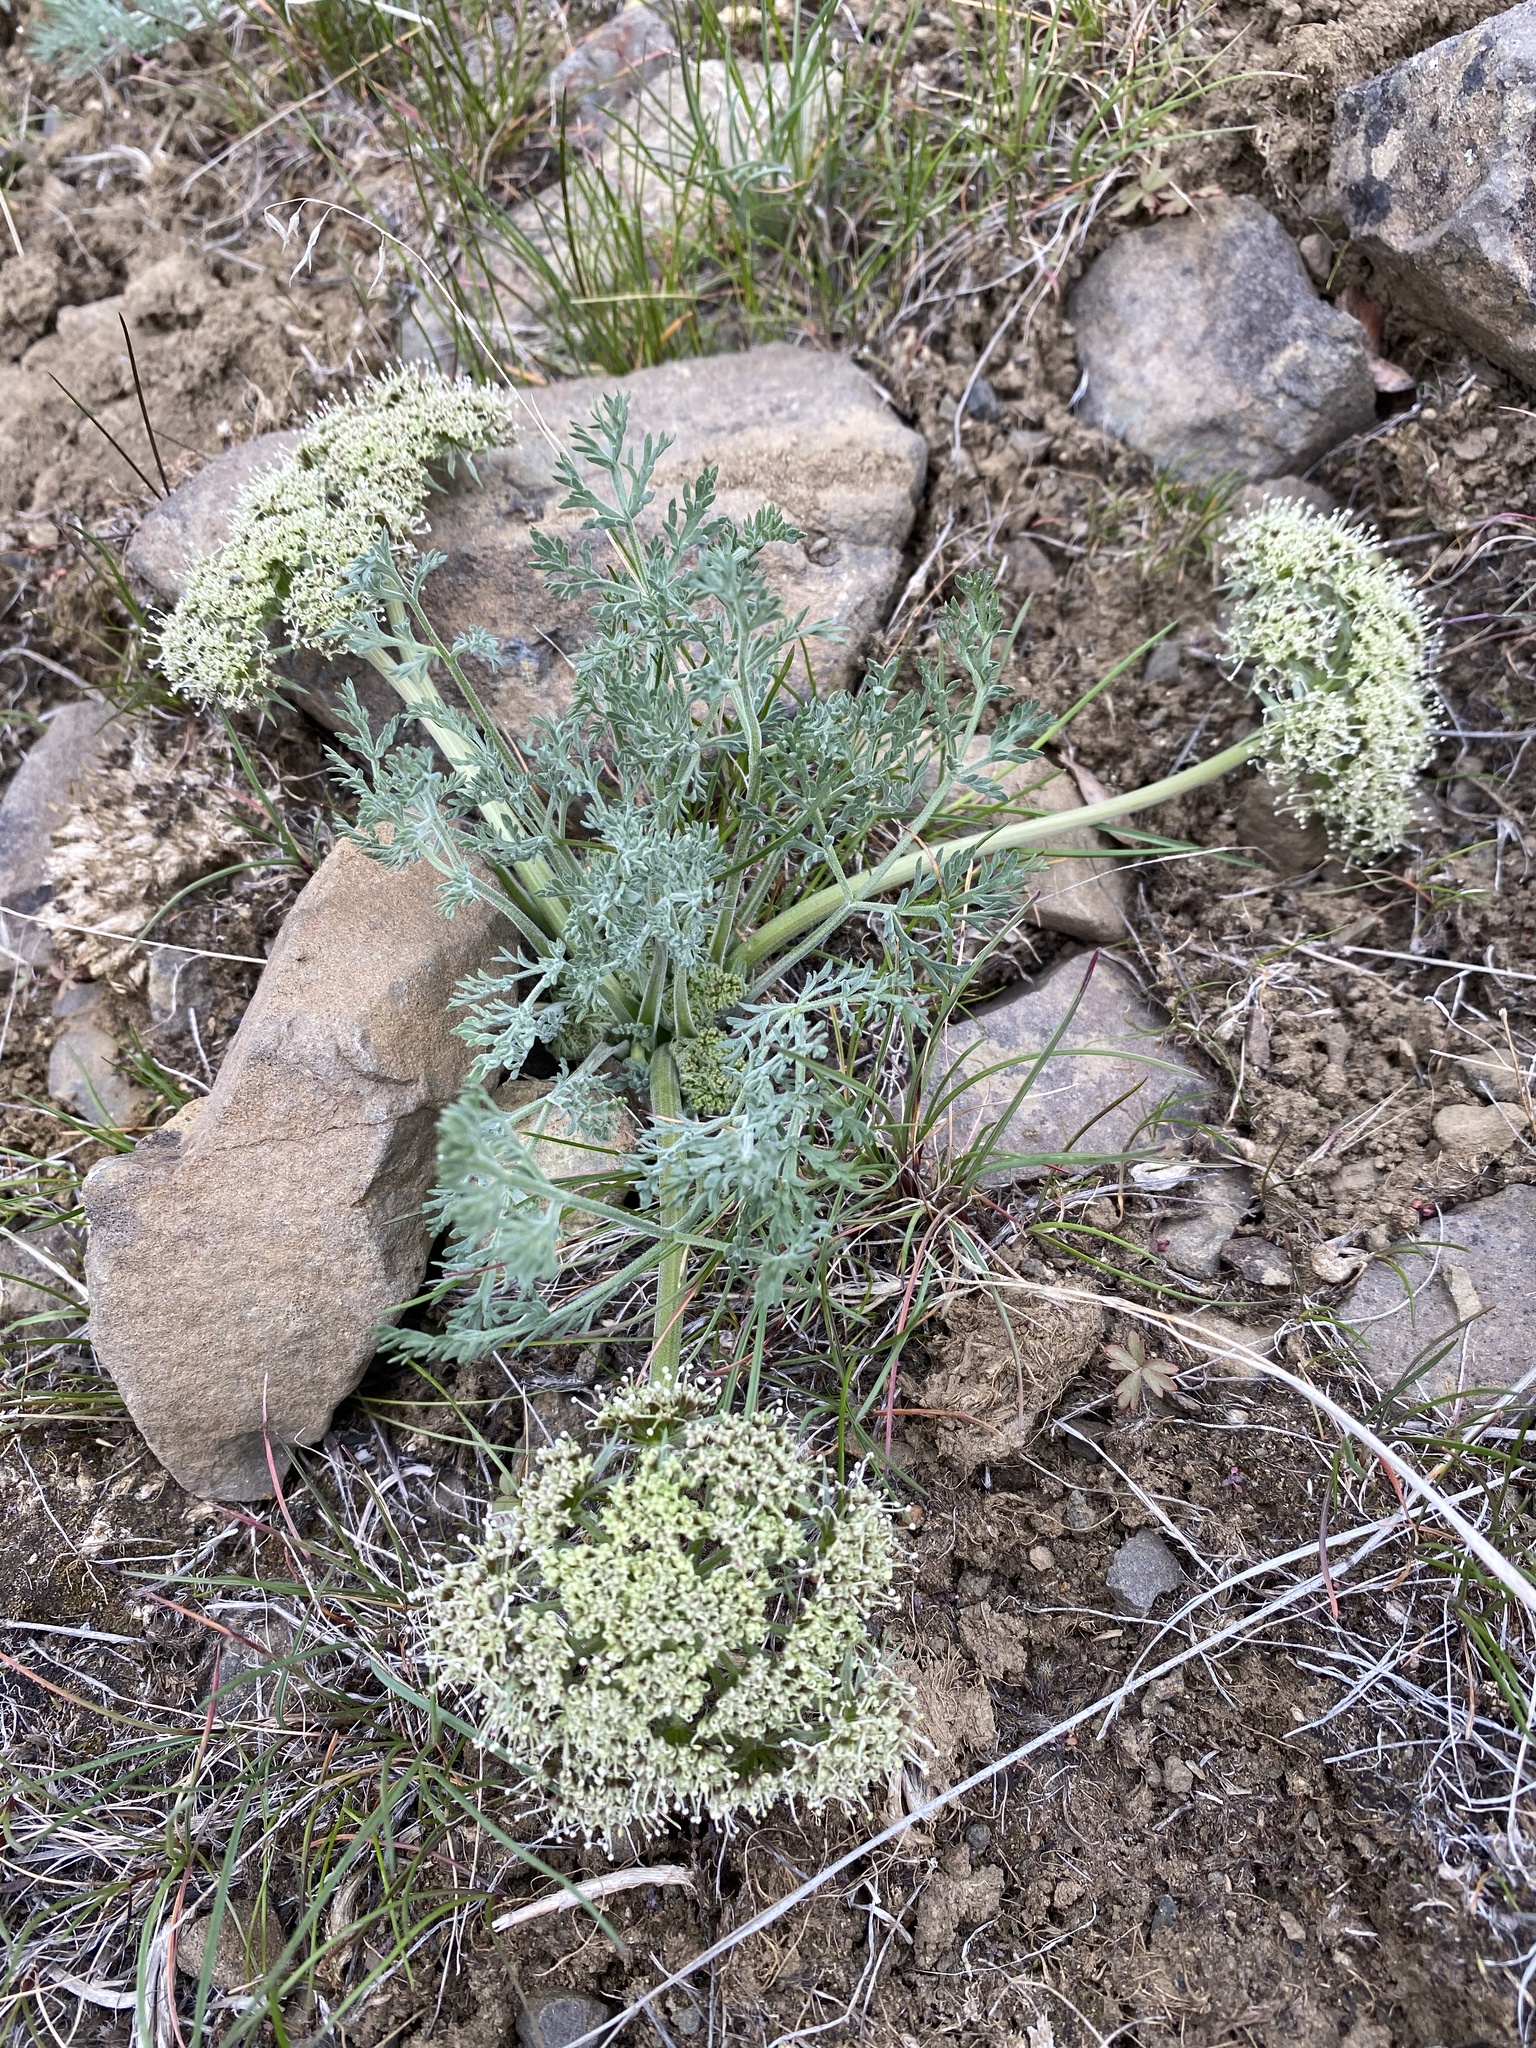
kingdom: Plantae
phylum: Tracheophyta
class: Magnoliopsida
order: Apiales
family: Apiaceae
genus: Lomatium
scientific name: Lomatium macrocarpum
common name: Big-seed biscuitroot
